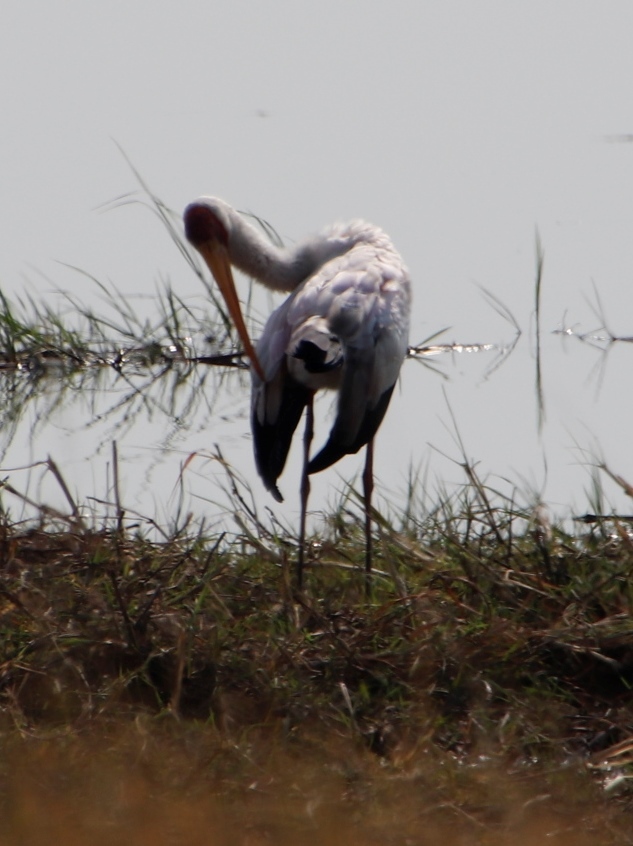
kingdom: Animalia
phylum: Chordata
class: Aves
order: Ciconiiformes
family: Ciconiidae
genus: Mycteria
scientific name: Mycteria ibis
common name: Yellow-billed stork
